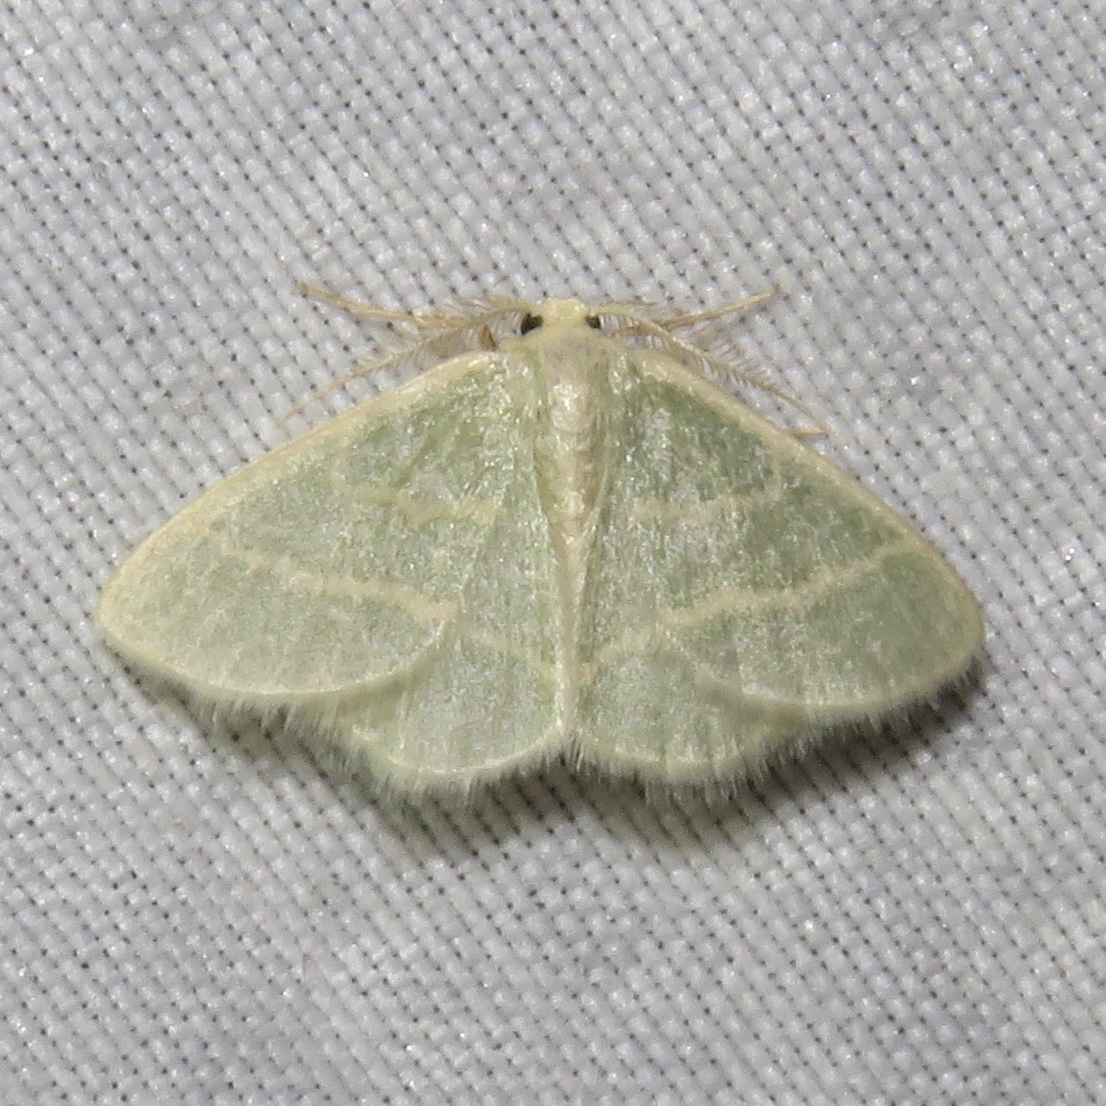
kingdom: Animalia
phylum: Arthropoda
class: Insecta
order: Lepidoptera
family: Geometridae
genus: Chlorochlamys
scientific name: Chlorochlamys chloroleucaria
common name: Blackberry looper
